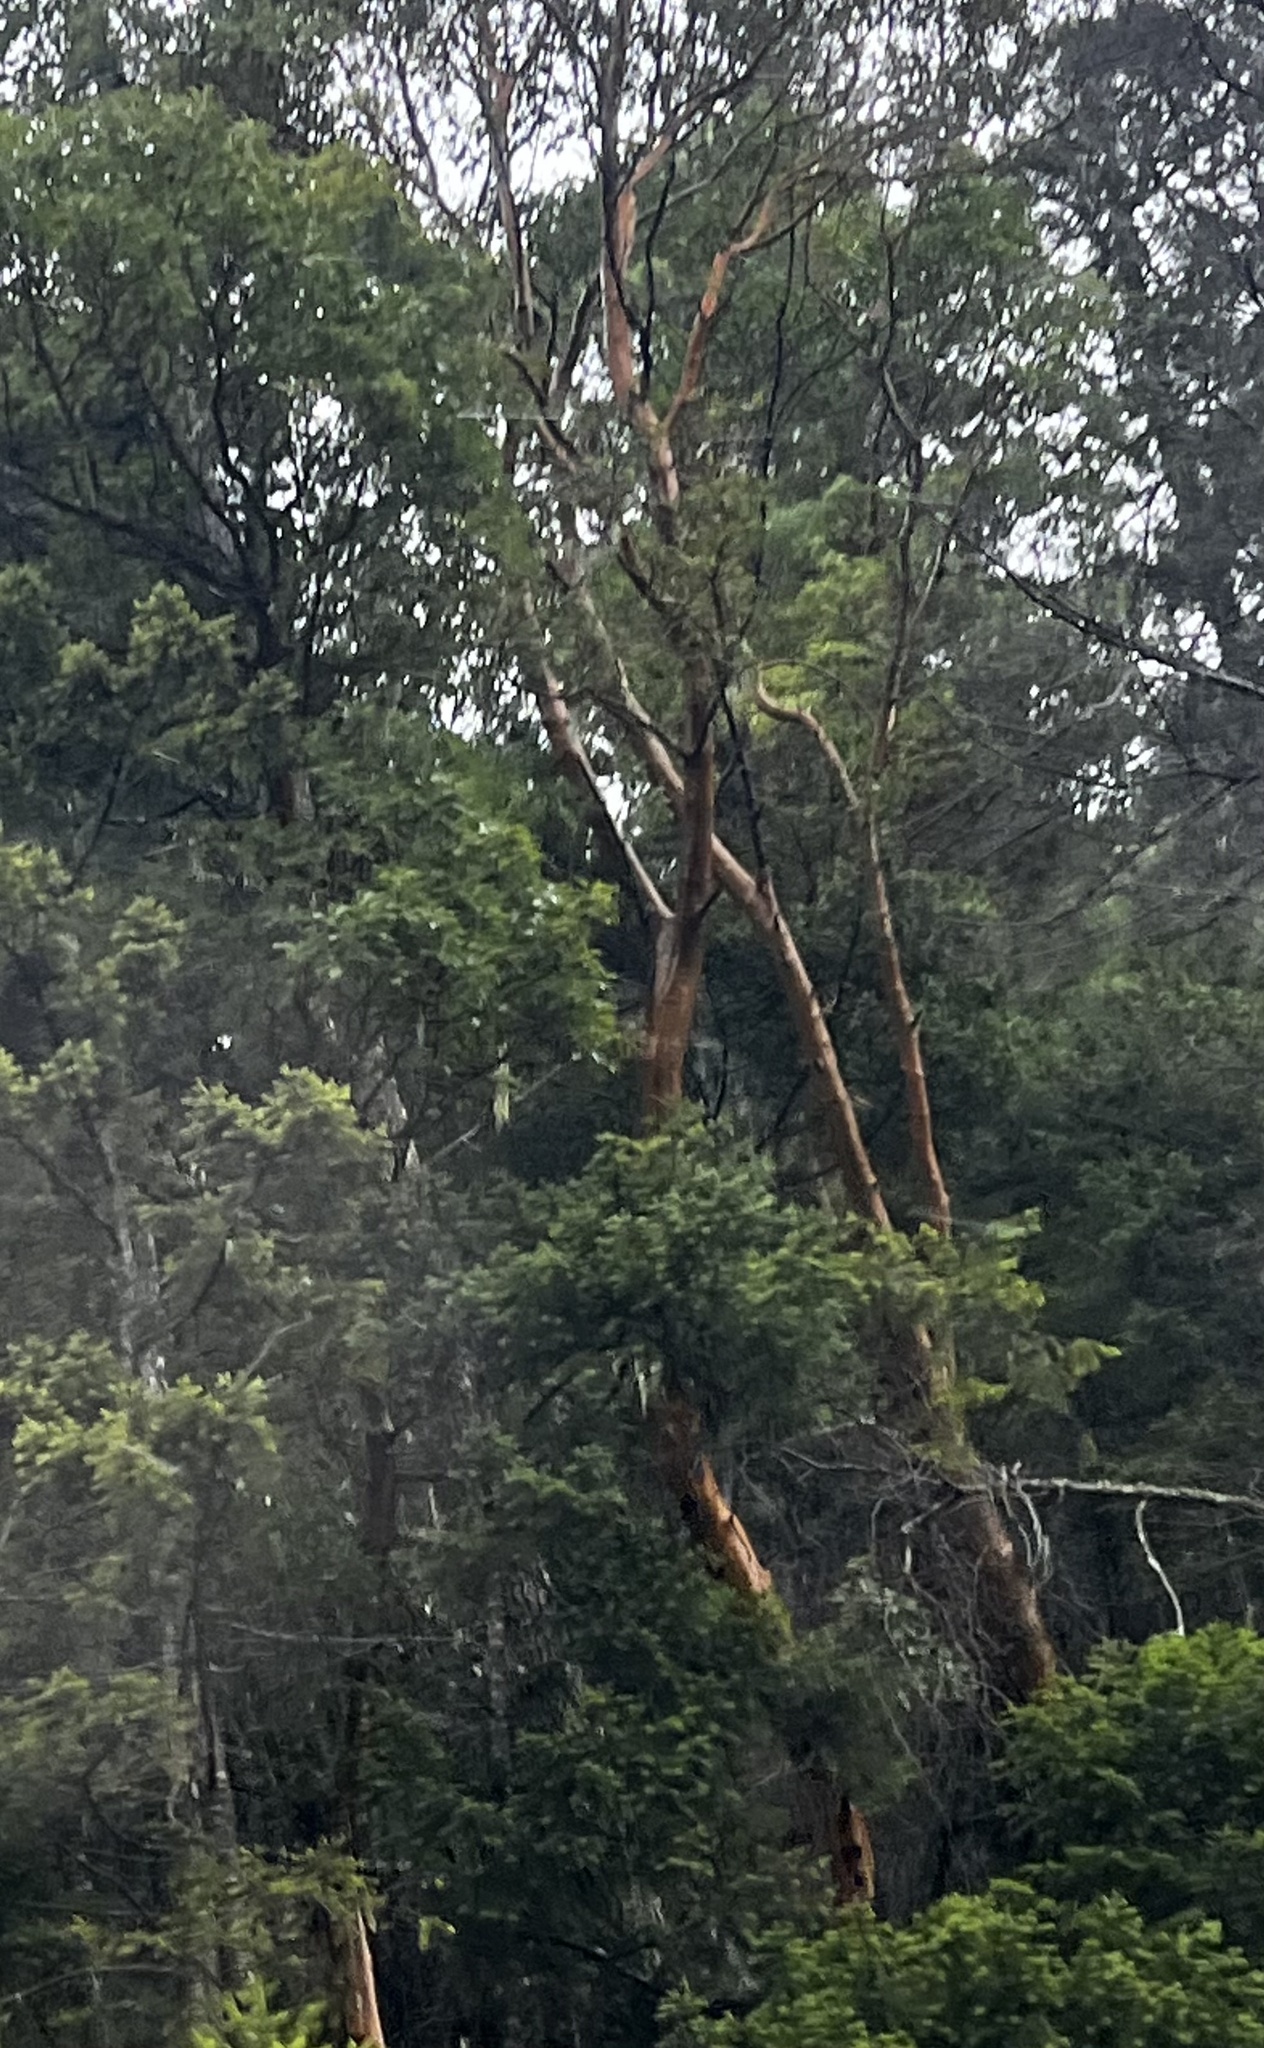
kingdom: Plantae
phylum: Tracheophyta
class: Magnoliopsida
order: Ericales
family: Ericaceae
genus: Arbutus
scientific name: Arbutus menziesii
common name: Pacific madrone
